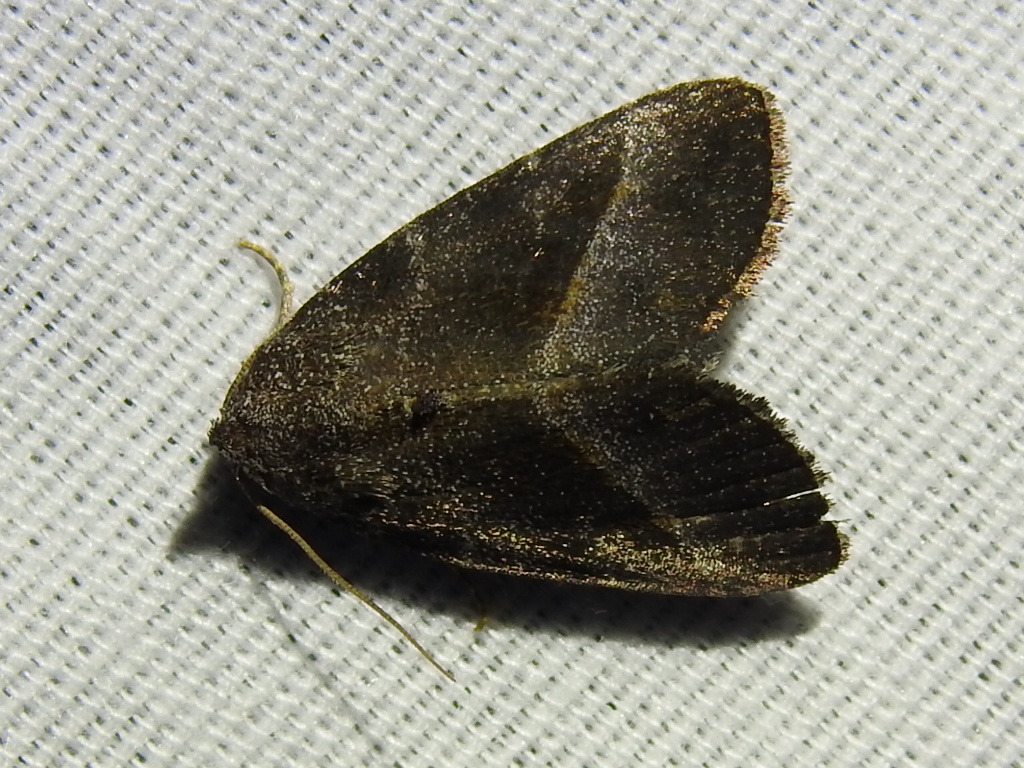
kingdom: Animalia
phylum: Arthropoda
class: Insecta
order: Lepidoptera
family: Noctuidae
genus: Ogdoconta
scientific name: Ogdoconta altura
